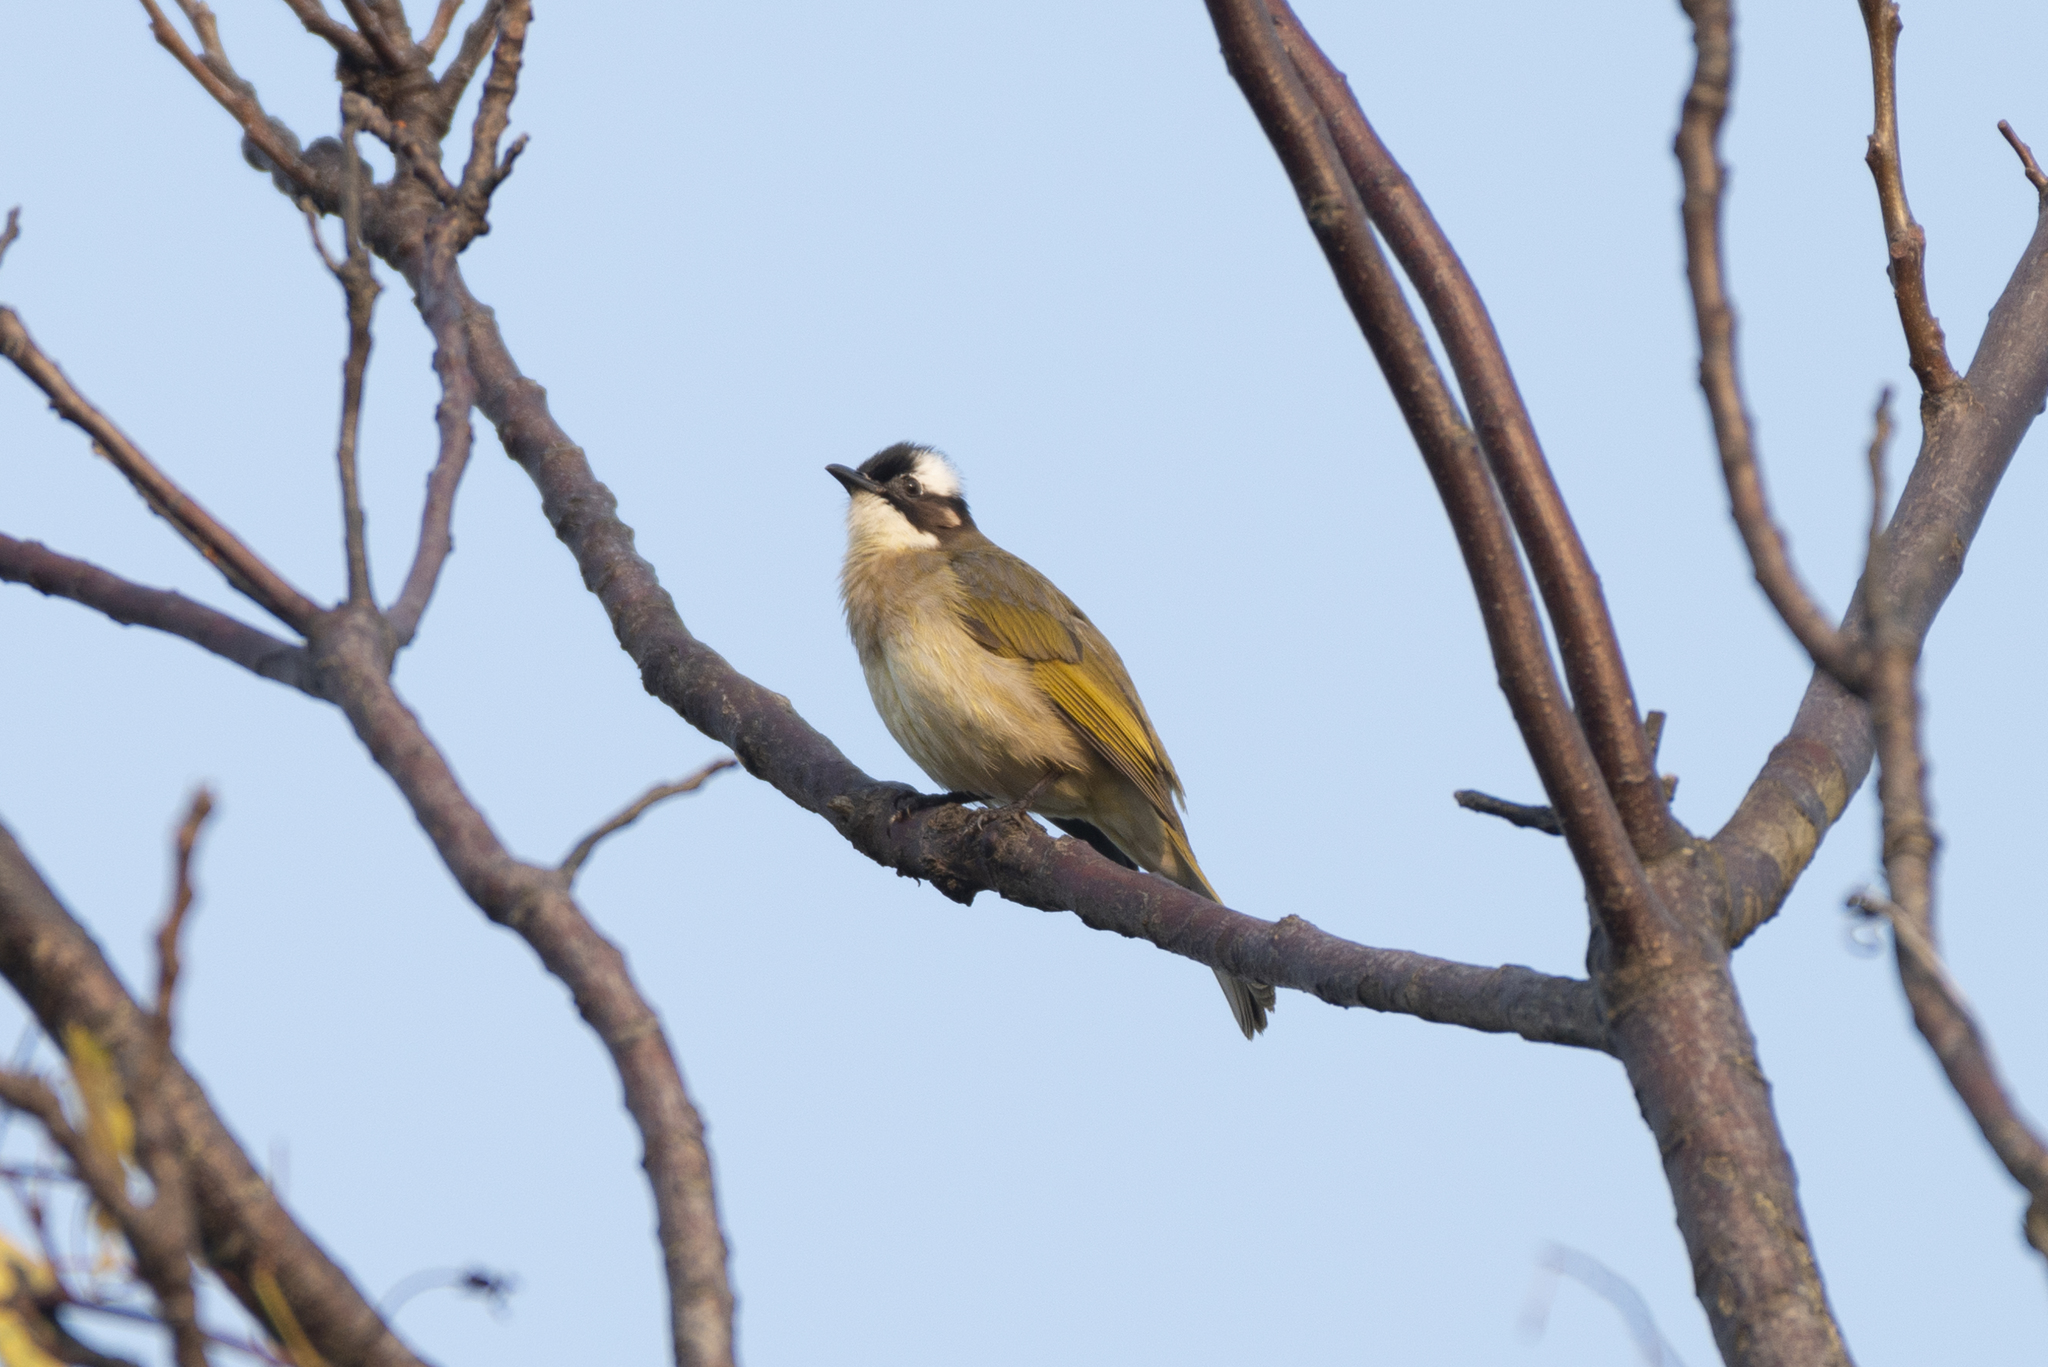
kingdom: Animalia
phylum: Chordata
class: Aves
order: Passeriformes
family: Pycnonotidae
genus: Pycnonotus
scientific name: Pycnonotus sinensis
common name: Light-vented bulbul
